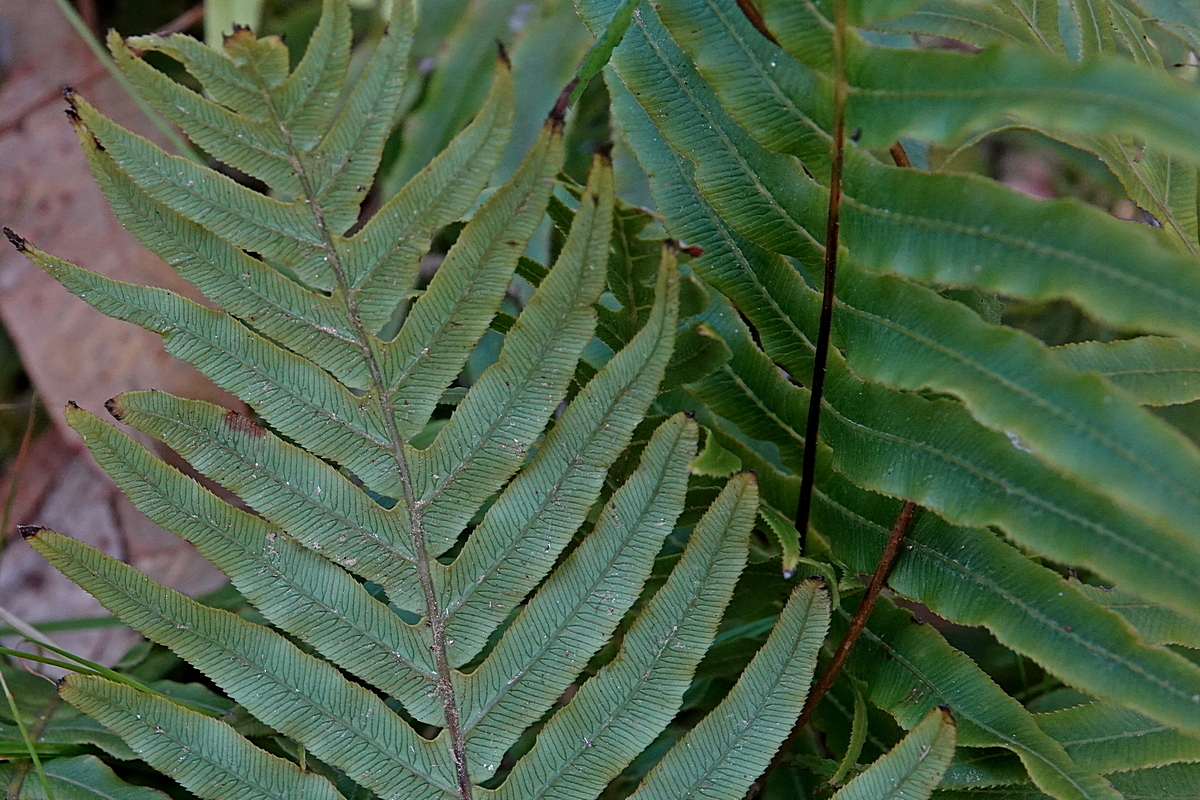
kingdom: Plantae
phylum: Tracheophyta
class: Polypodiopsida
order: Polypodiales
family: Blechnaceae
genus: Oceaniopteris
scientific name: Oceaniopteris cartilaginea
